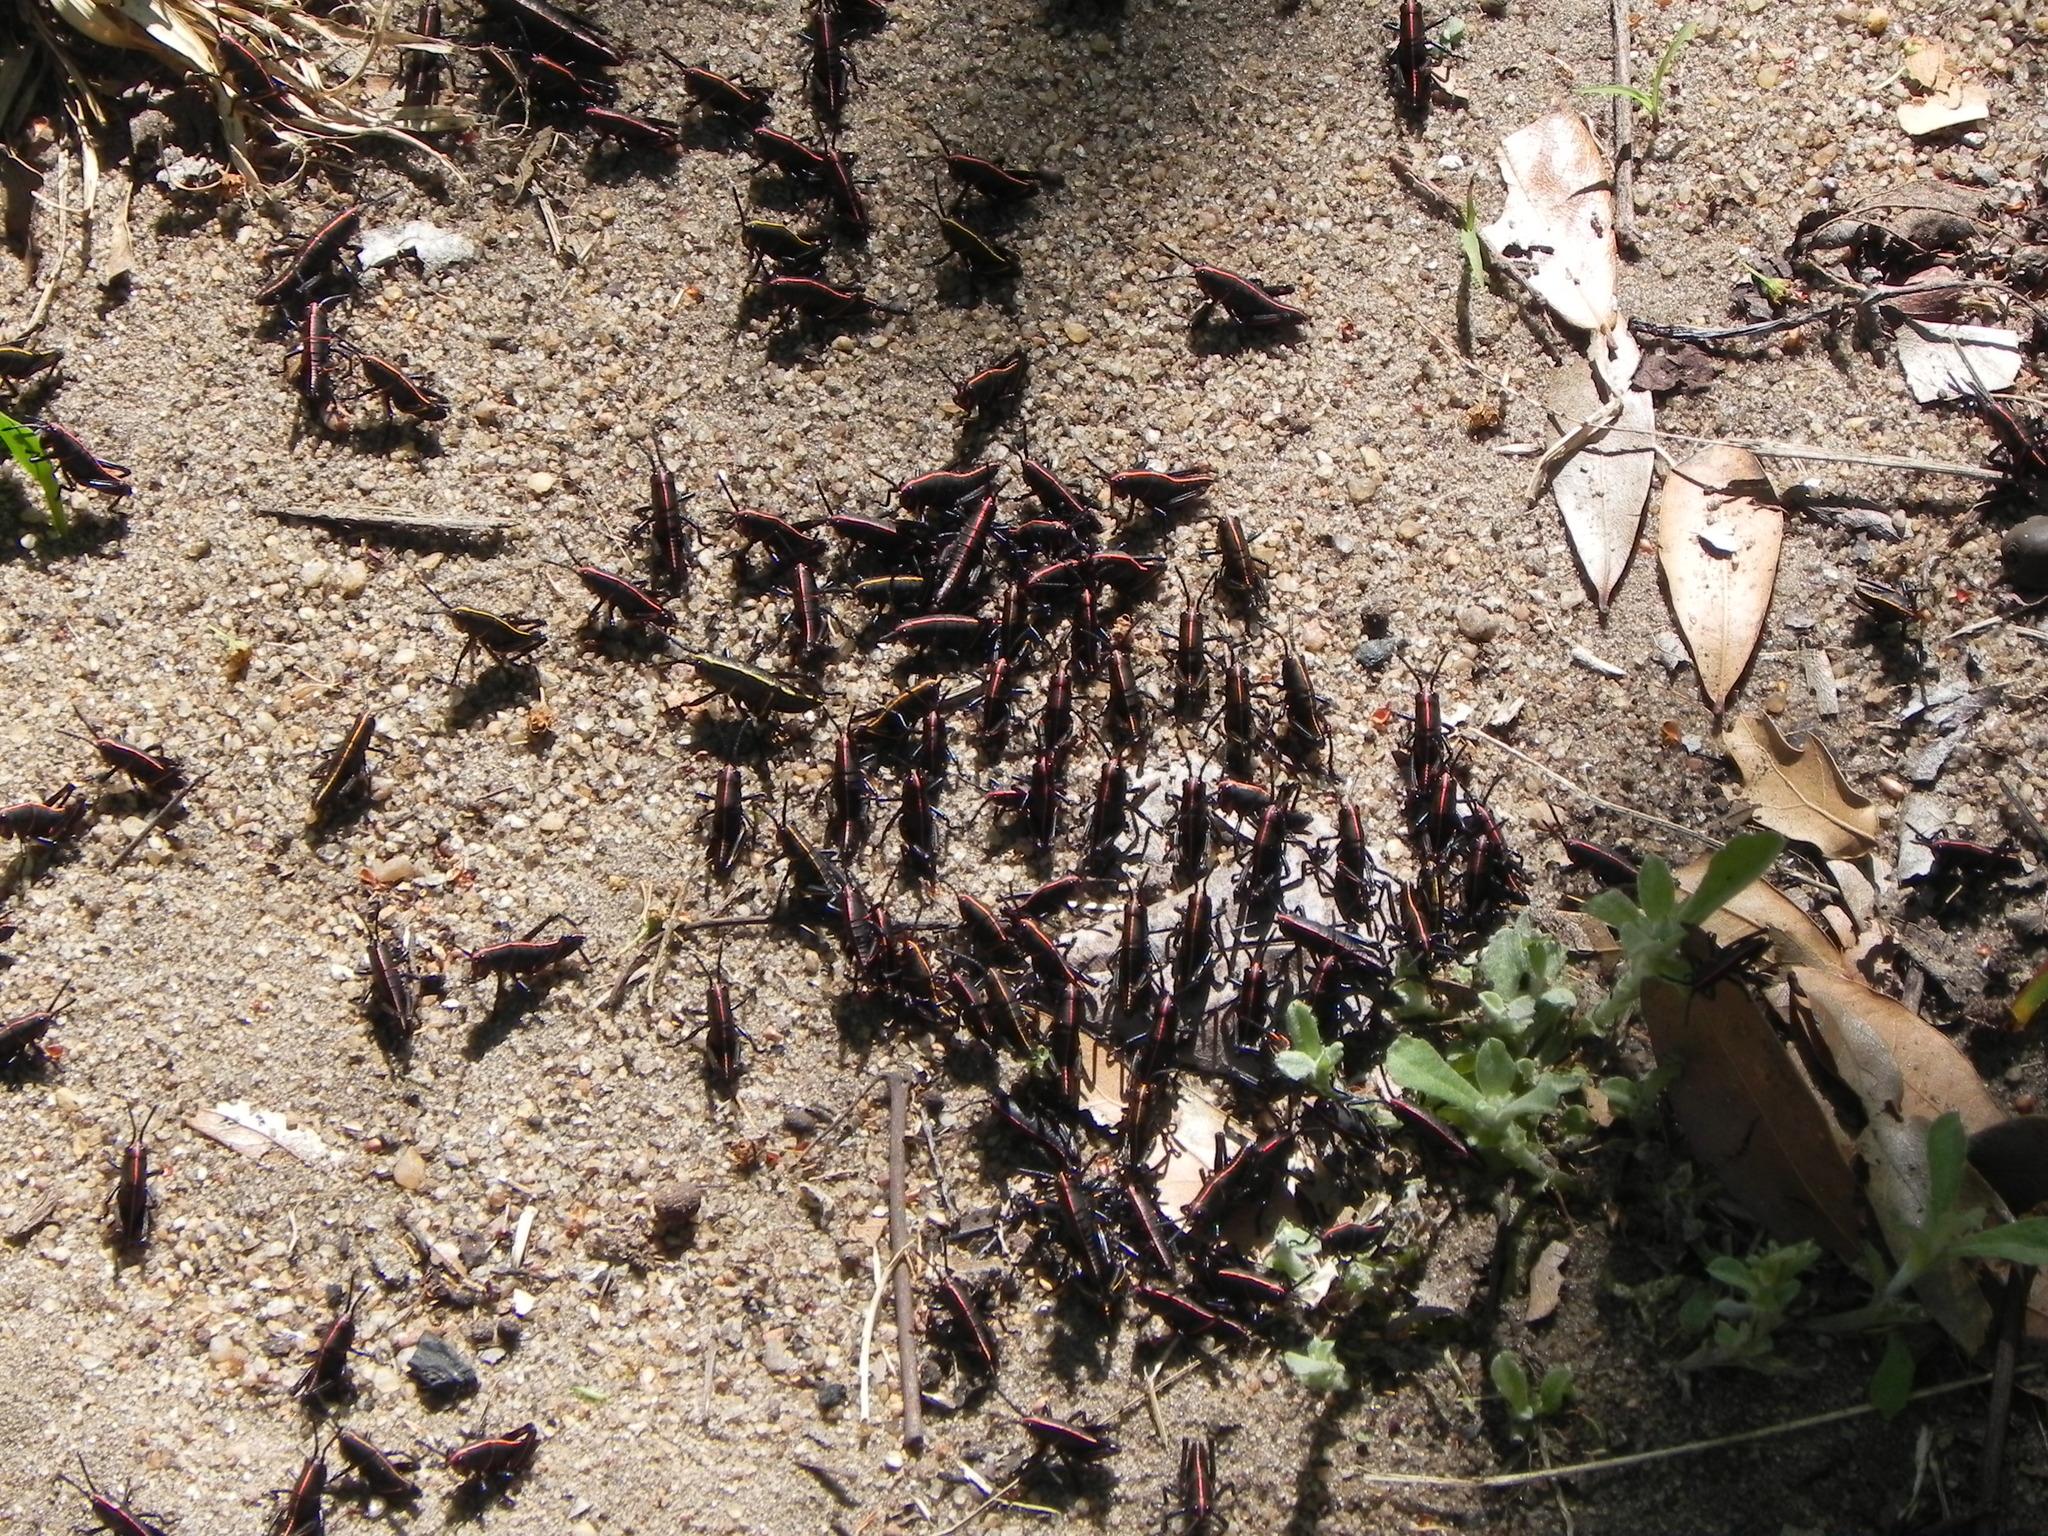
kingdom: Animalia
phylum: Arthropoda
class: Insecta
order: Orthoptera
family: Romaleidae
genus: Romalea
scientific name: Romalea microptera
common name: Eastern lubber grasshopper
